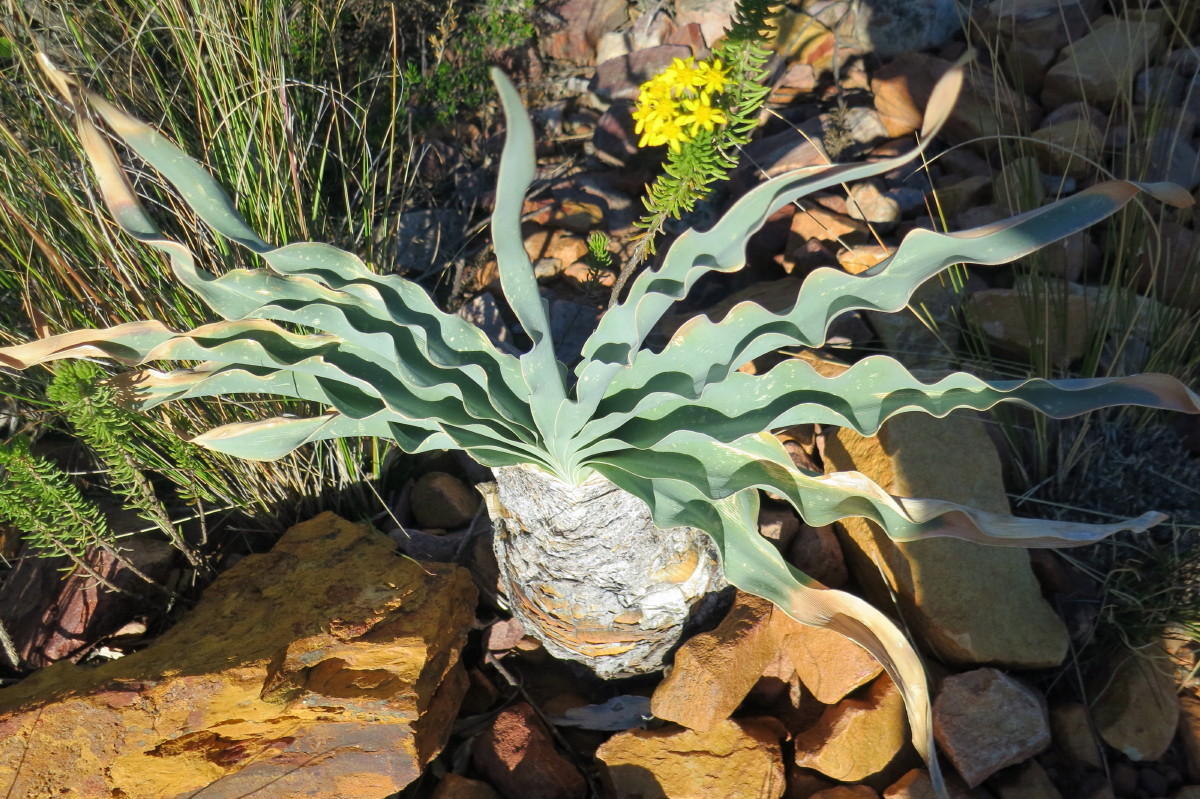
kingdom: Plantae
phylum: Tracheophyta
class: Liliopsida
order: Asparagales
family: Amaryllidaceae
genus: Boophone
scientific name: Boophone disticha
